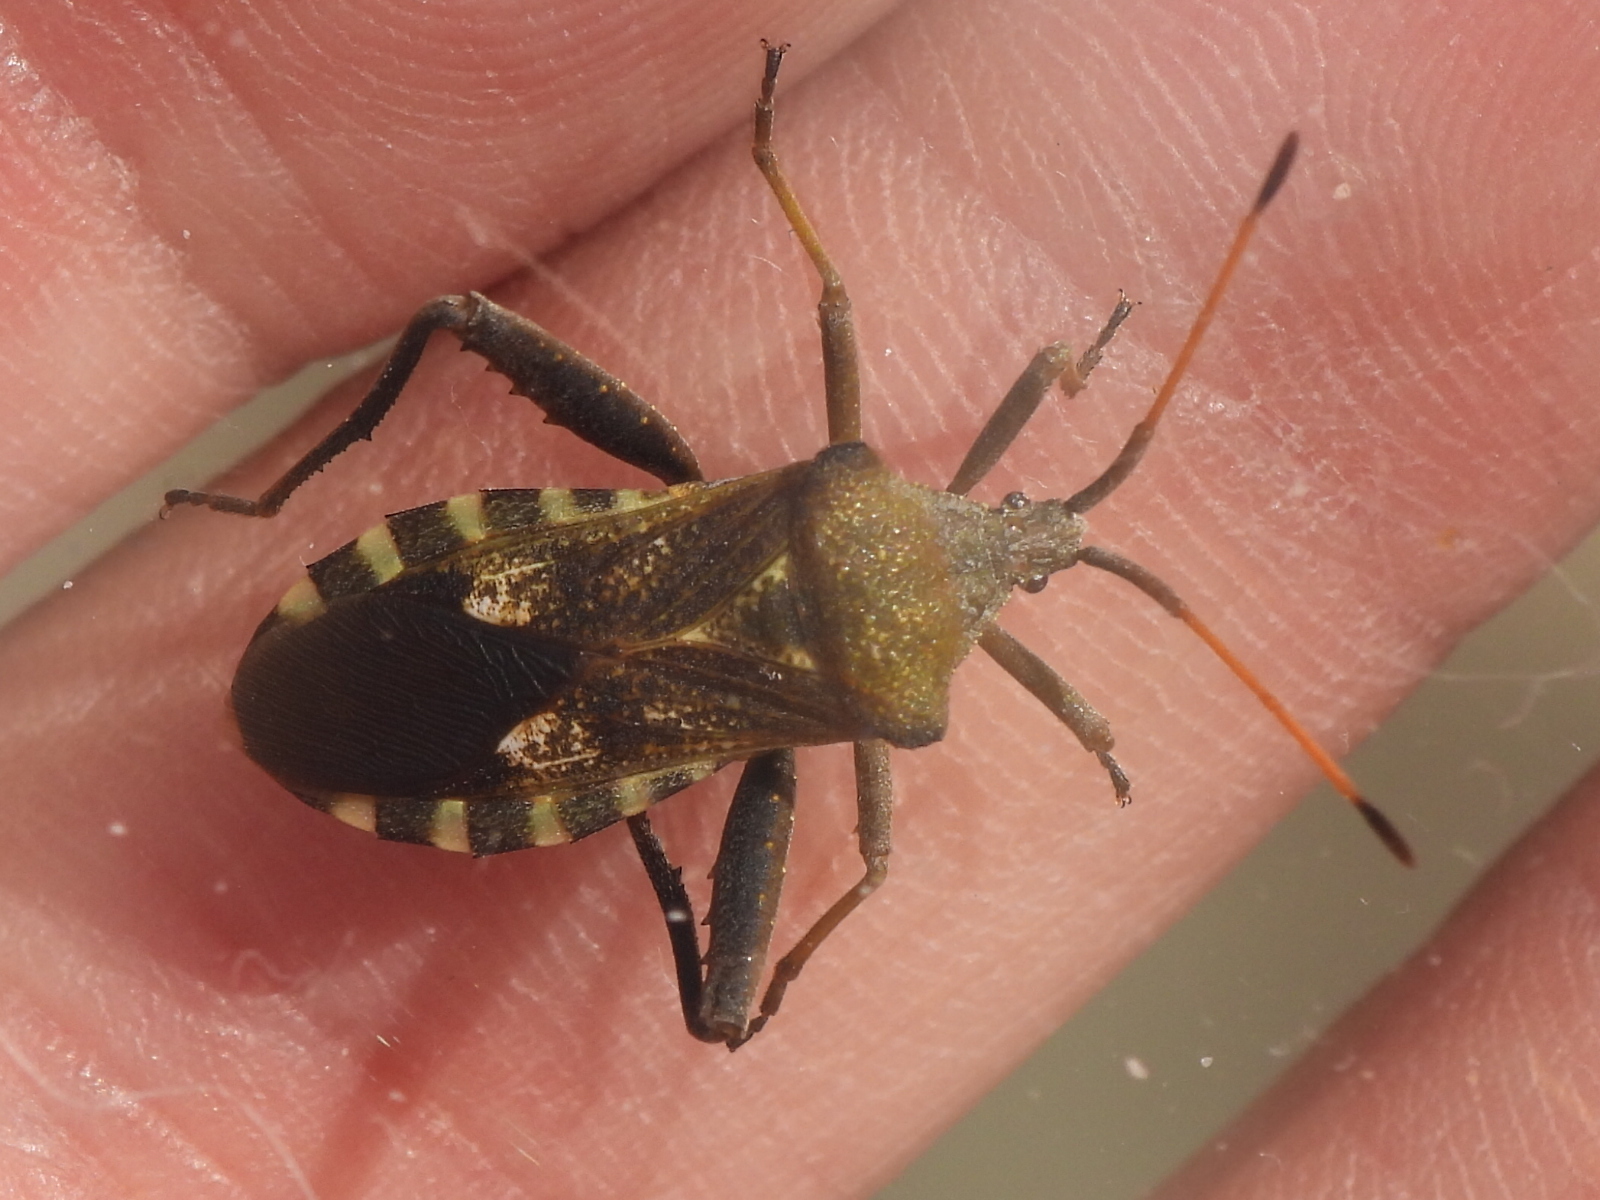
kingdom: Animalia
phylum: Arthropoda
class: Insecta
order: Hemiptera
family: Coreidae
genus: Mozena
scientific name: Mozena obtusa
